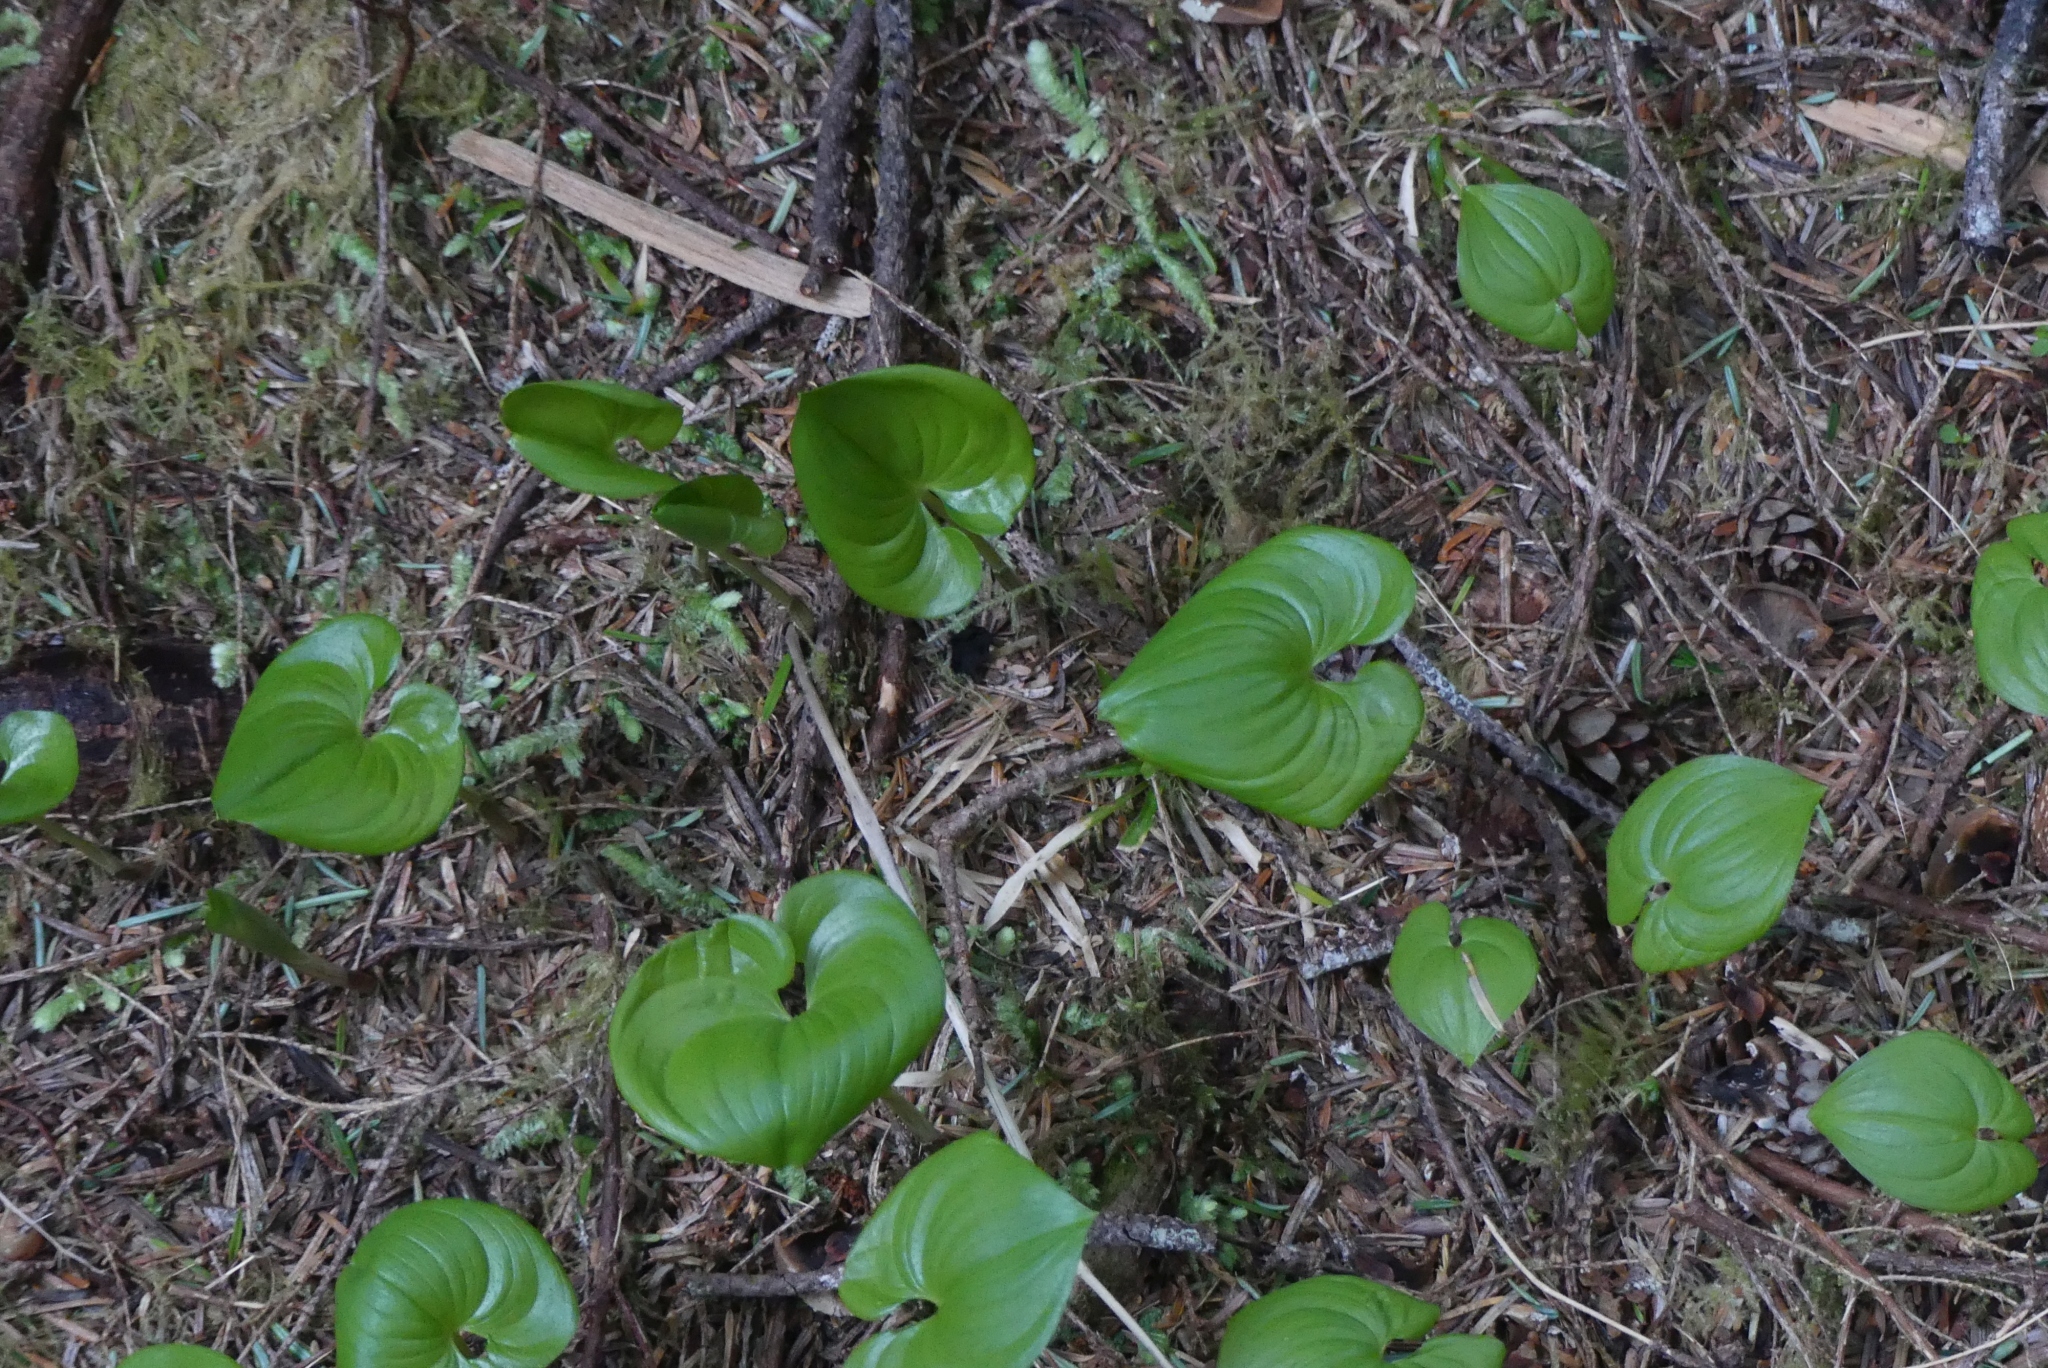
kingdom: Plantae
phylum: Tracheophyta
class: Liliopsida
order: Asparagales
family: Asparagaceae
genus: Maianthemum
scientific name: Maianthemum dilatatum
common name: False lily-of-the-valley
